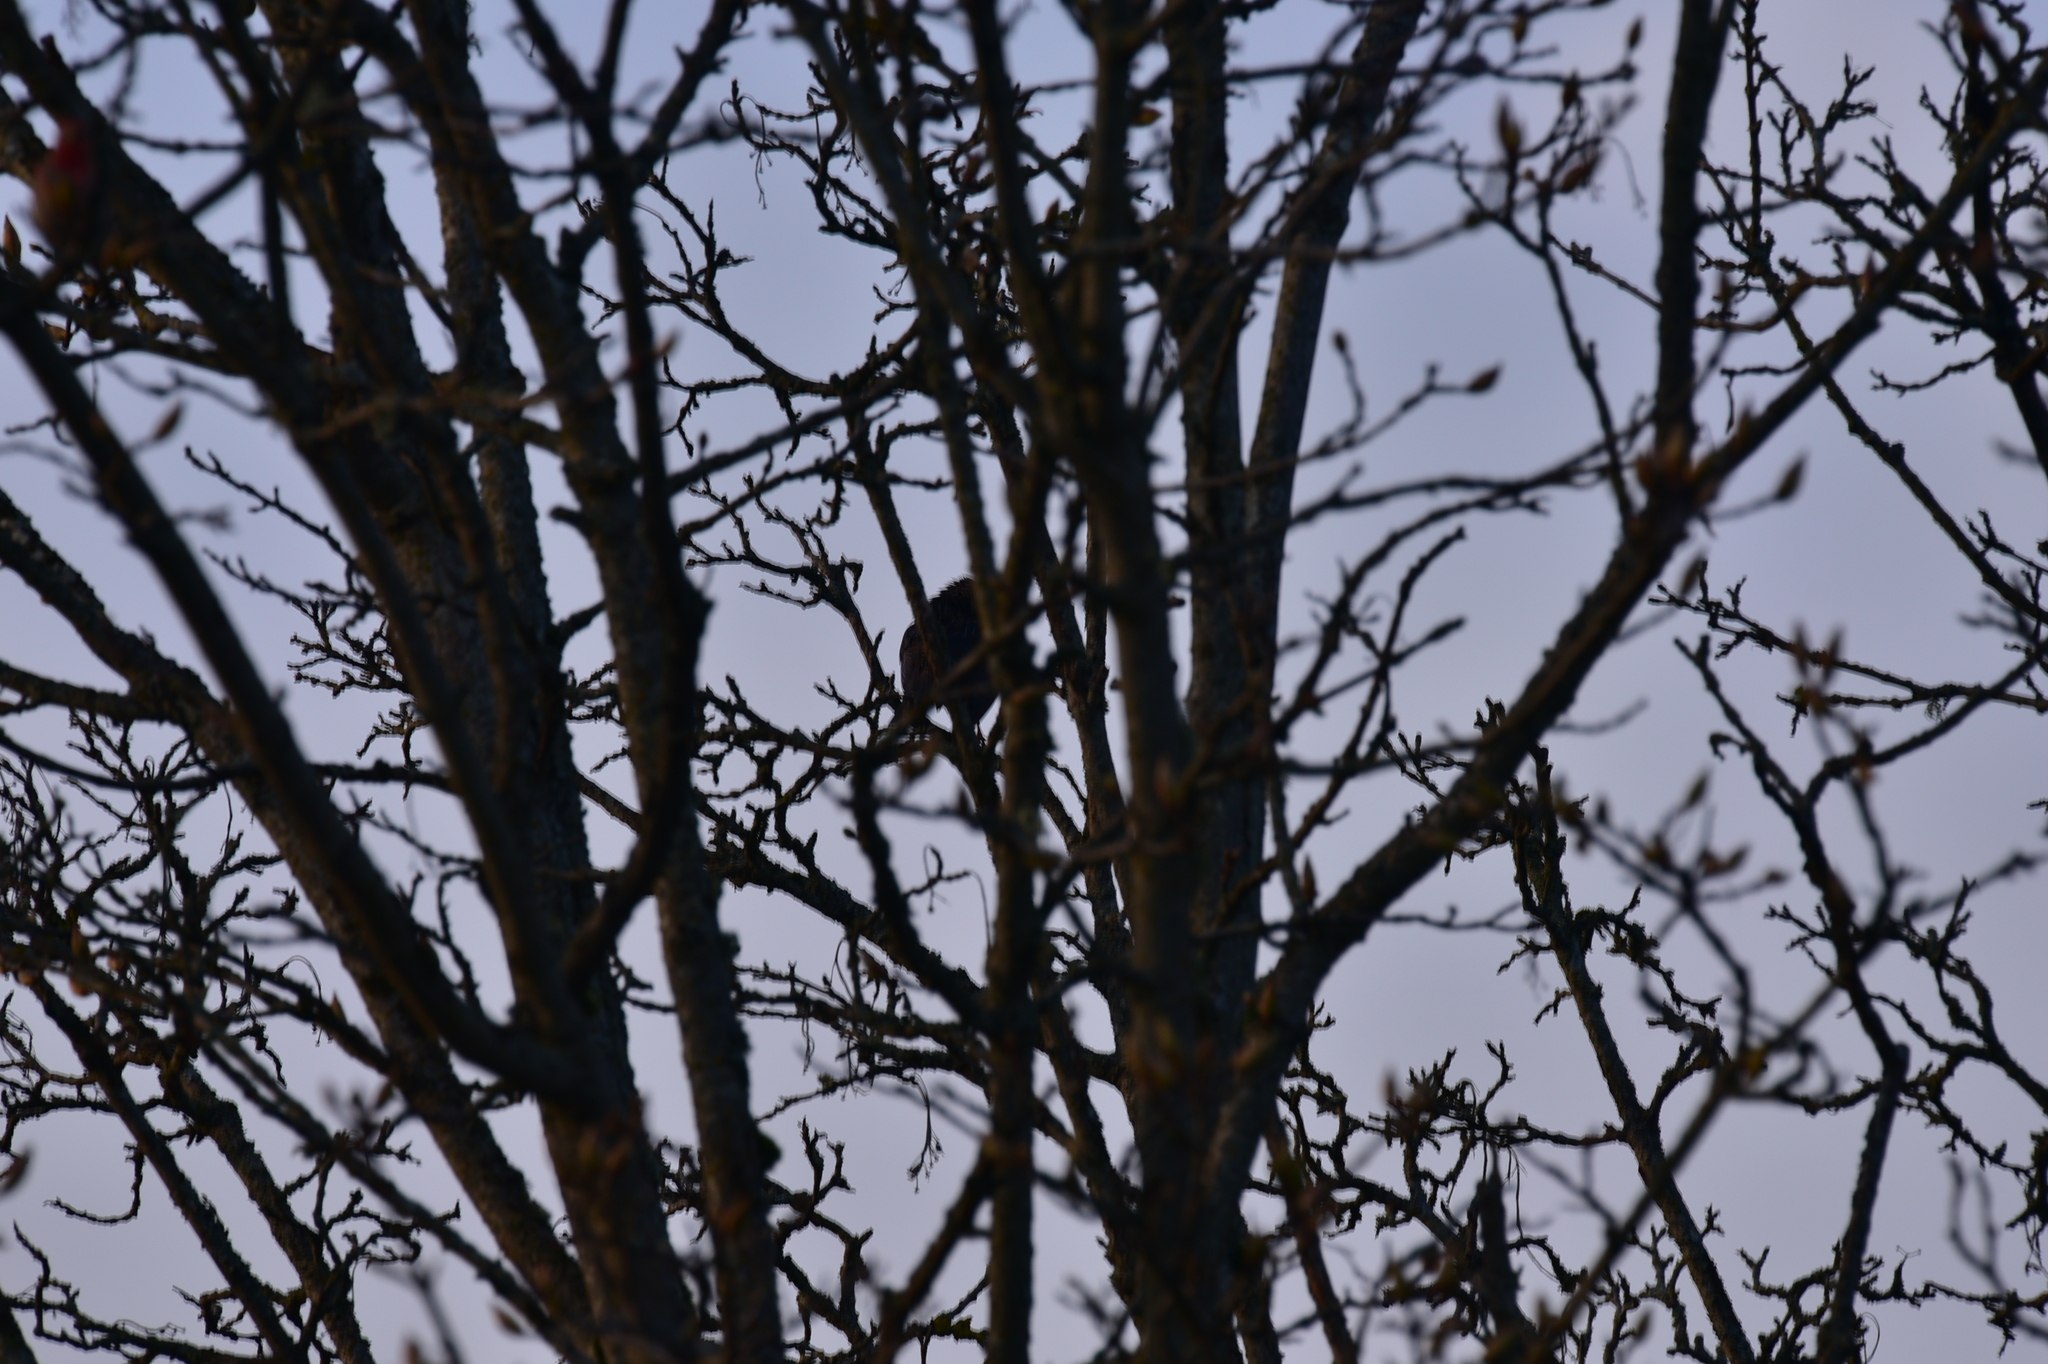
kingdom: Animalia
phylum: Chordata
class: Aves
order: Passeriformes
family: Sturnidae
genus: Sturnus
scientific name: Sturnus vulgaris
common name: Common starling
